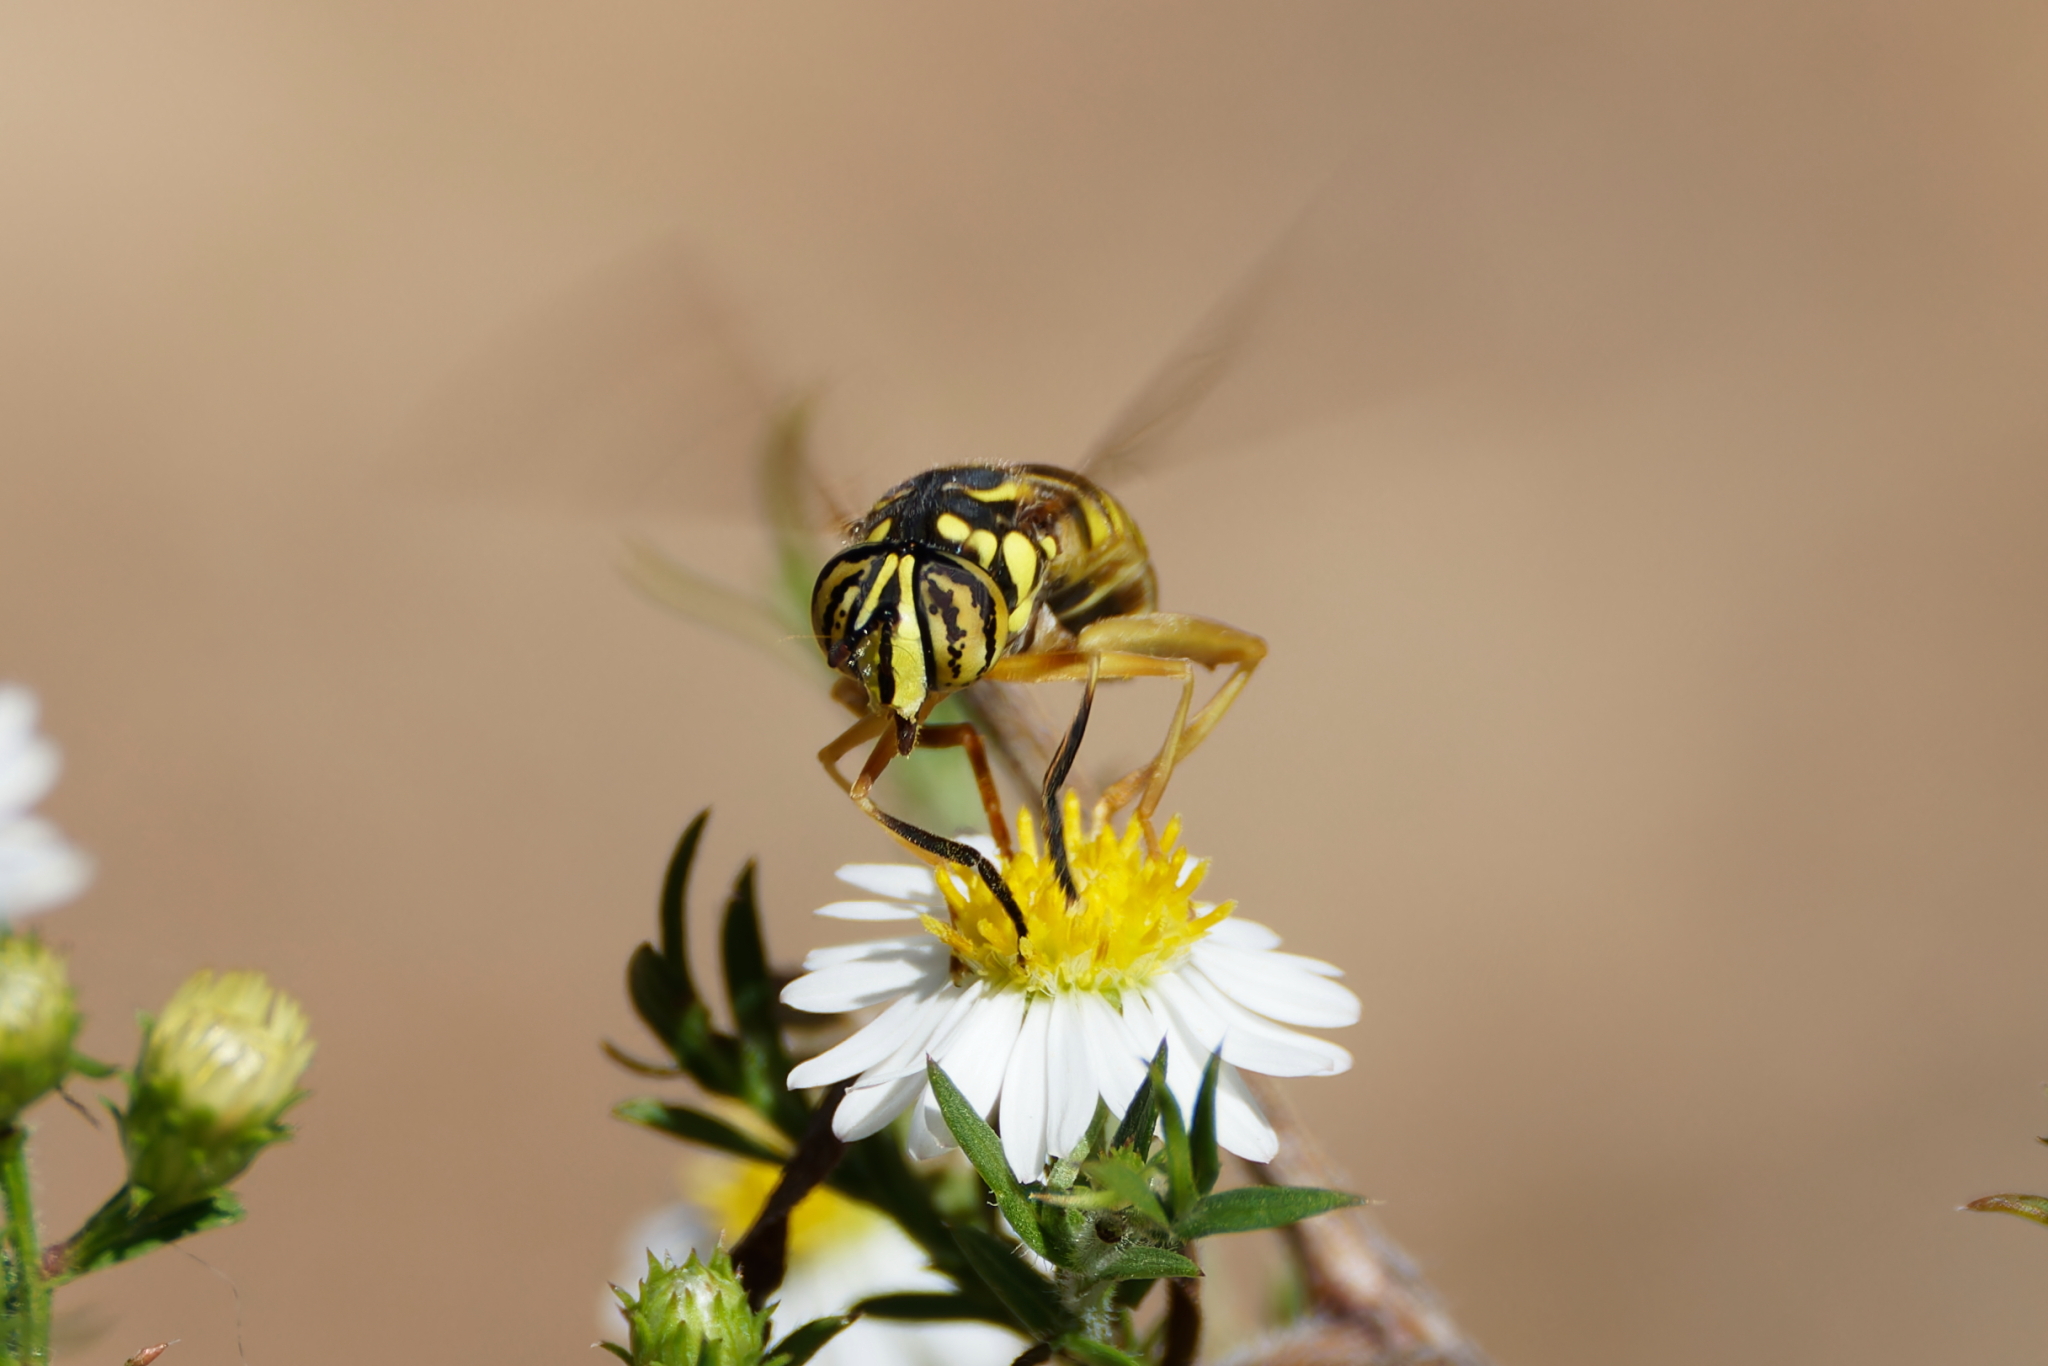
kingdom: Animalia
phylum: Arthropoda
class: Insecta
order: Diptera
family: Syrphidae
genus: Spilomyia
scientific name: Spilomyia longicornis
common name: Eastern hornet fly
